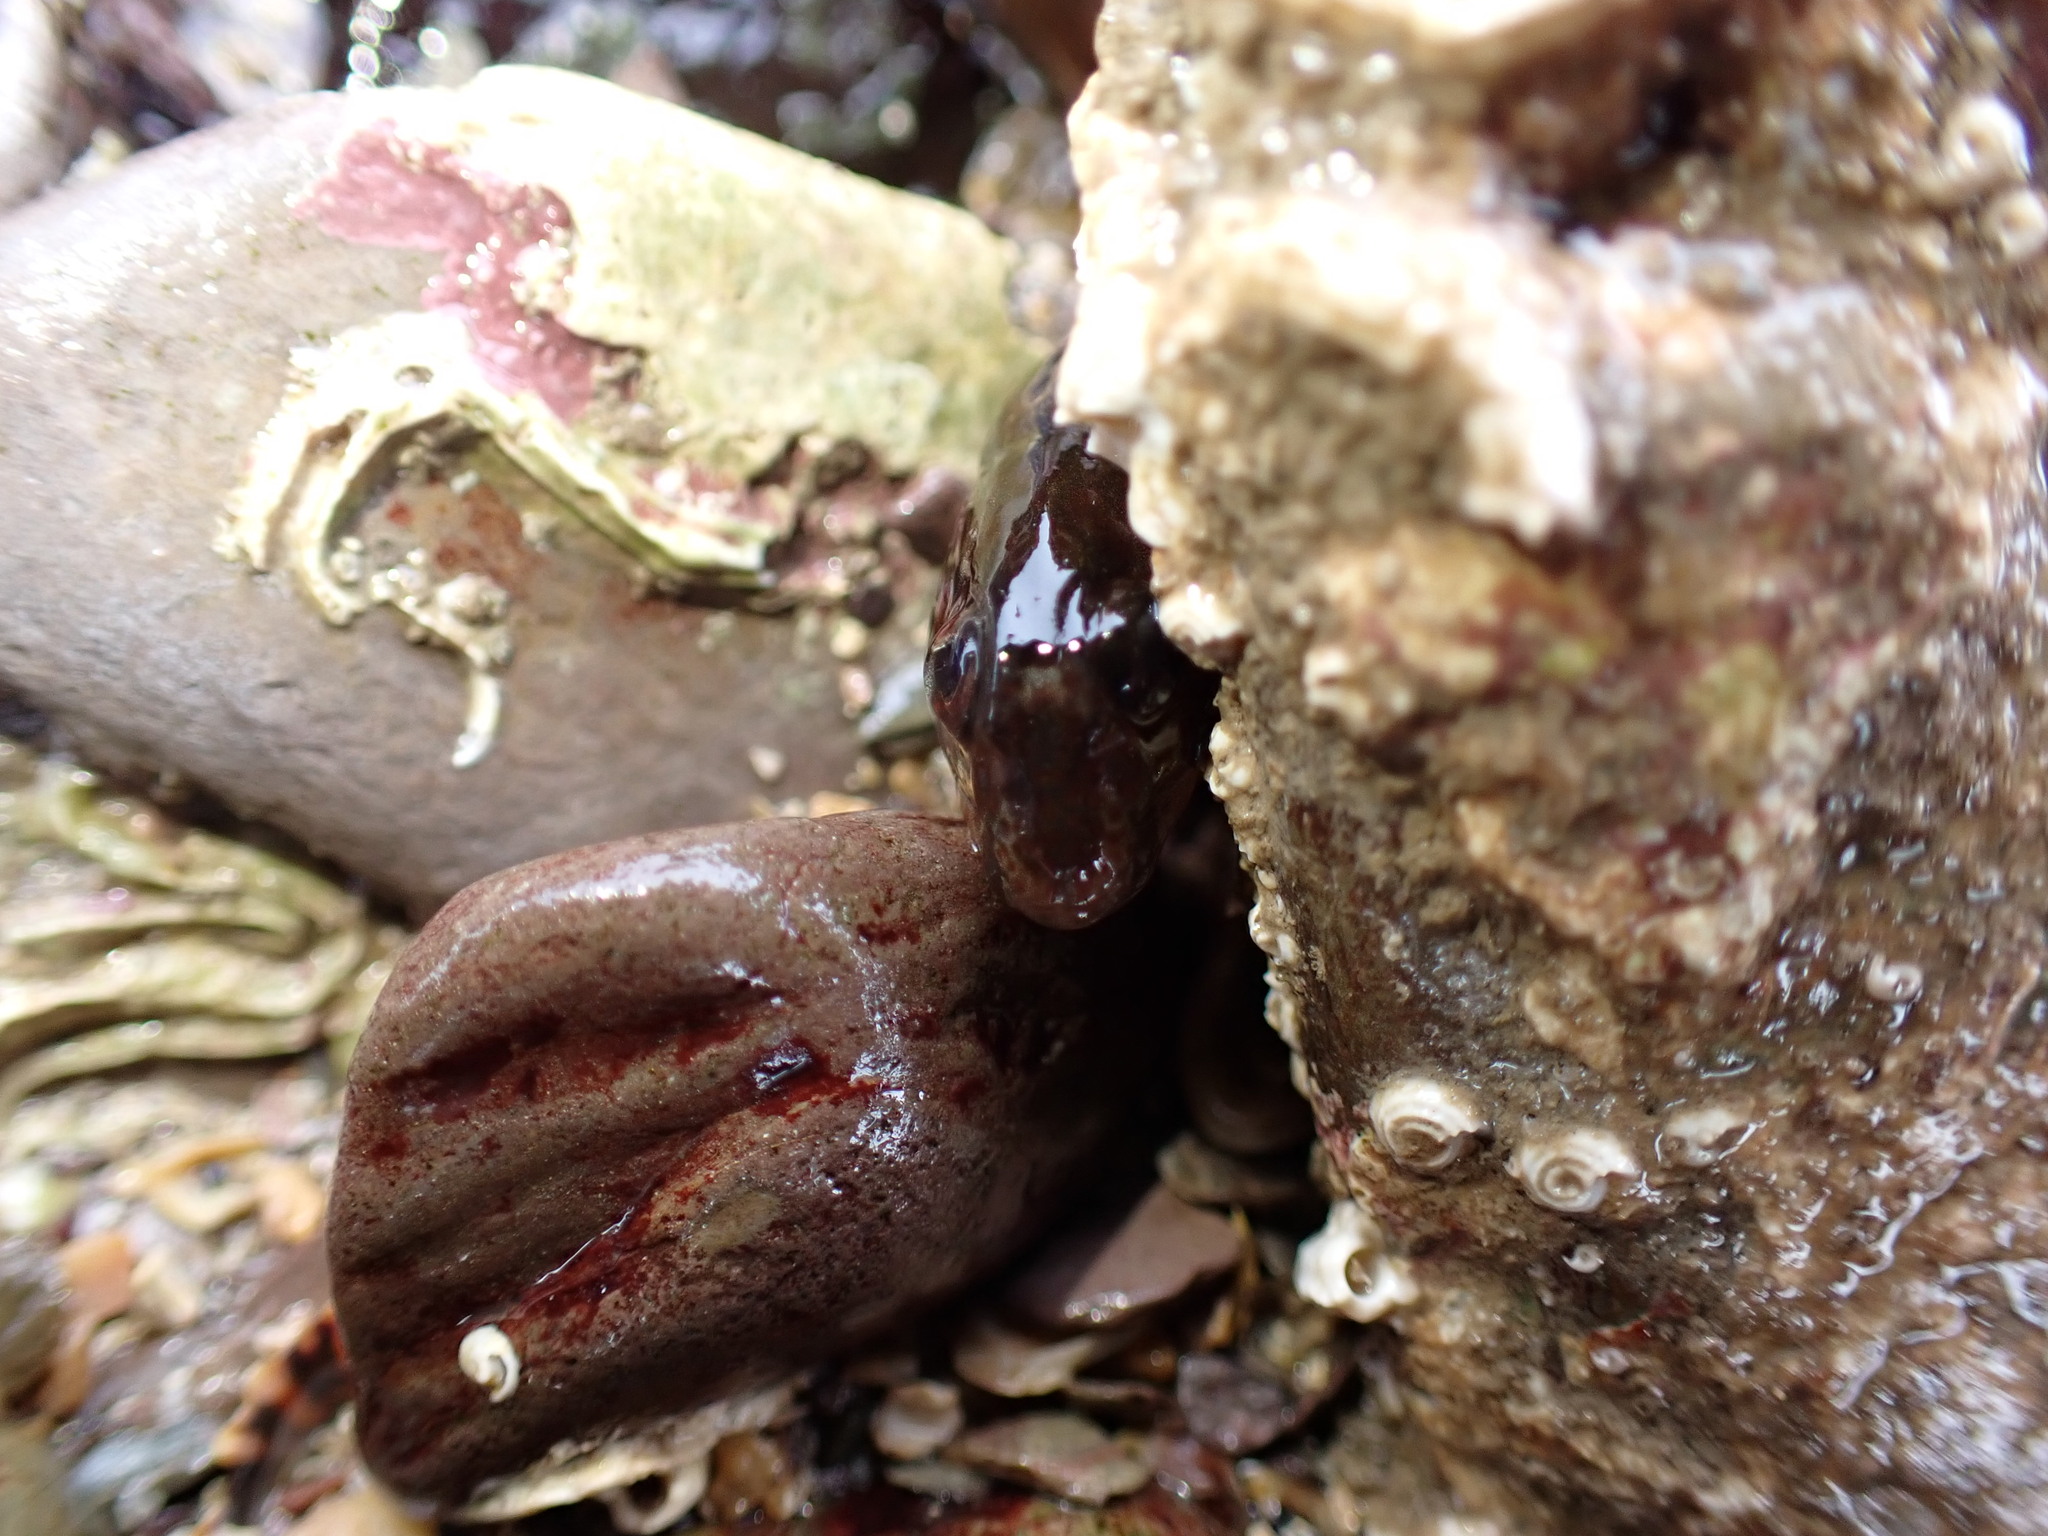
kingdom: Animalia
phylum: Chordata
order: Perciformes
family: Blenniidae
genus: Lipophrys
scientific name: Lipophrys pholis
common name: Shanny
